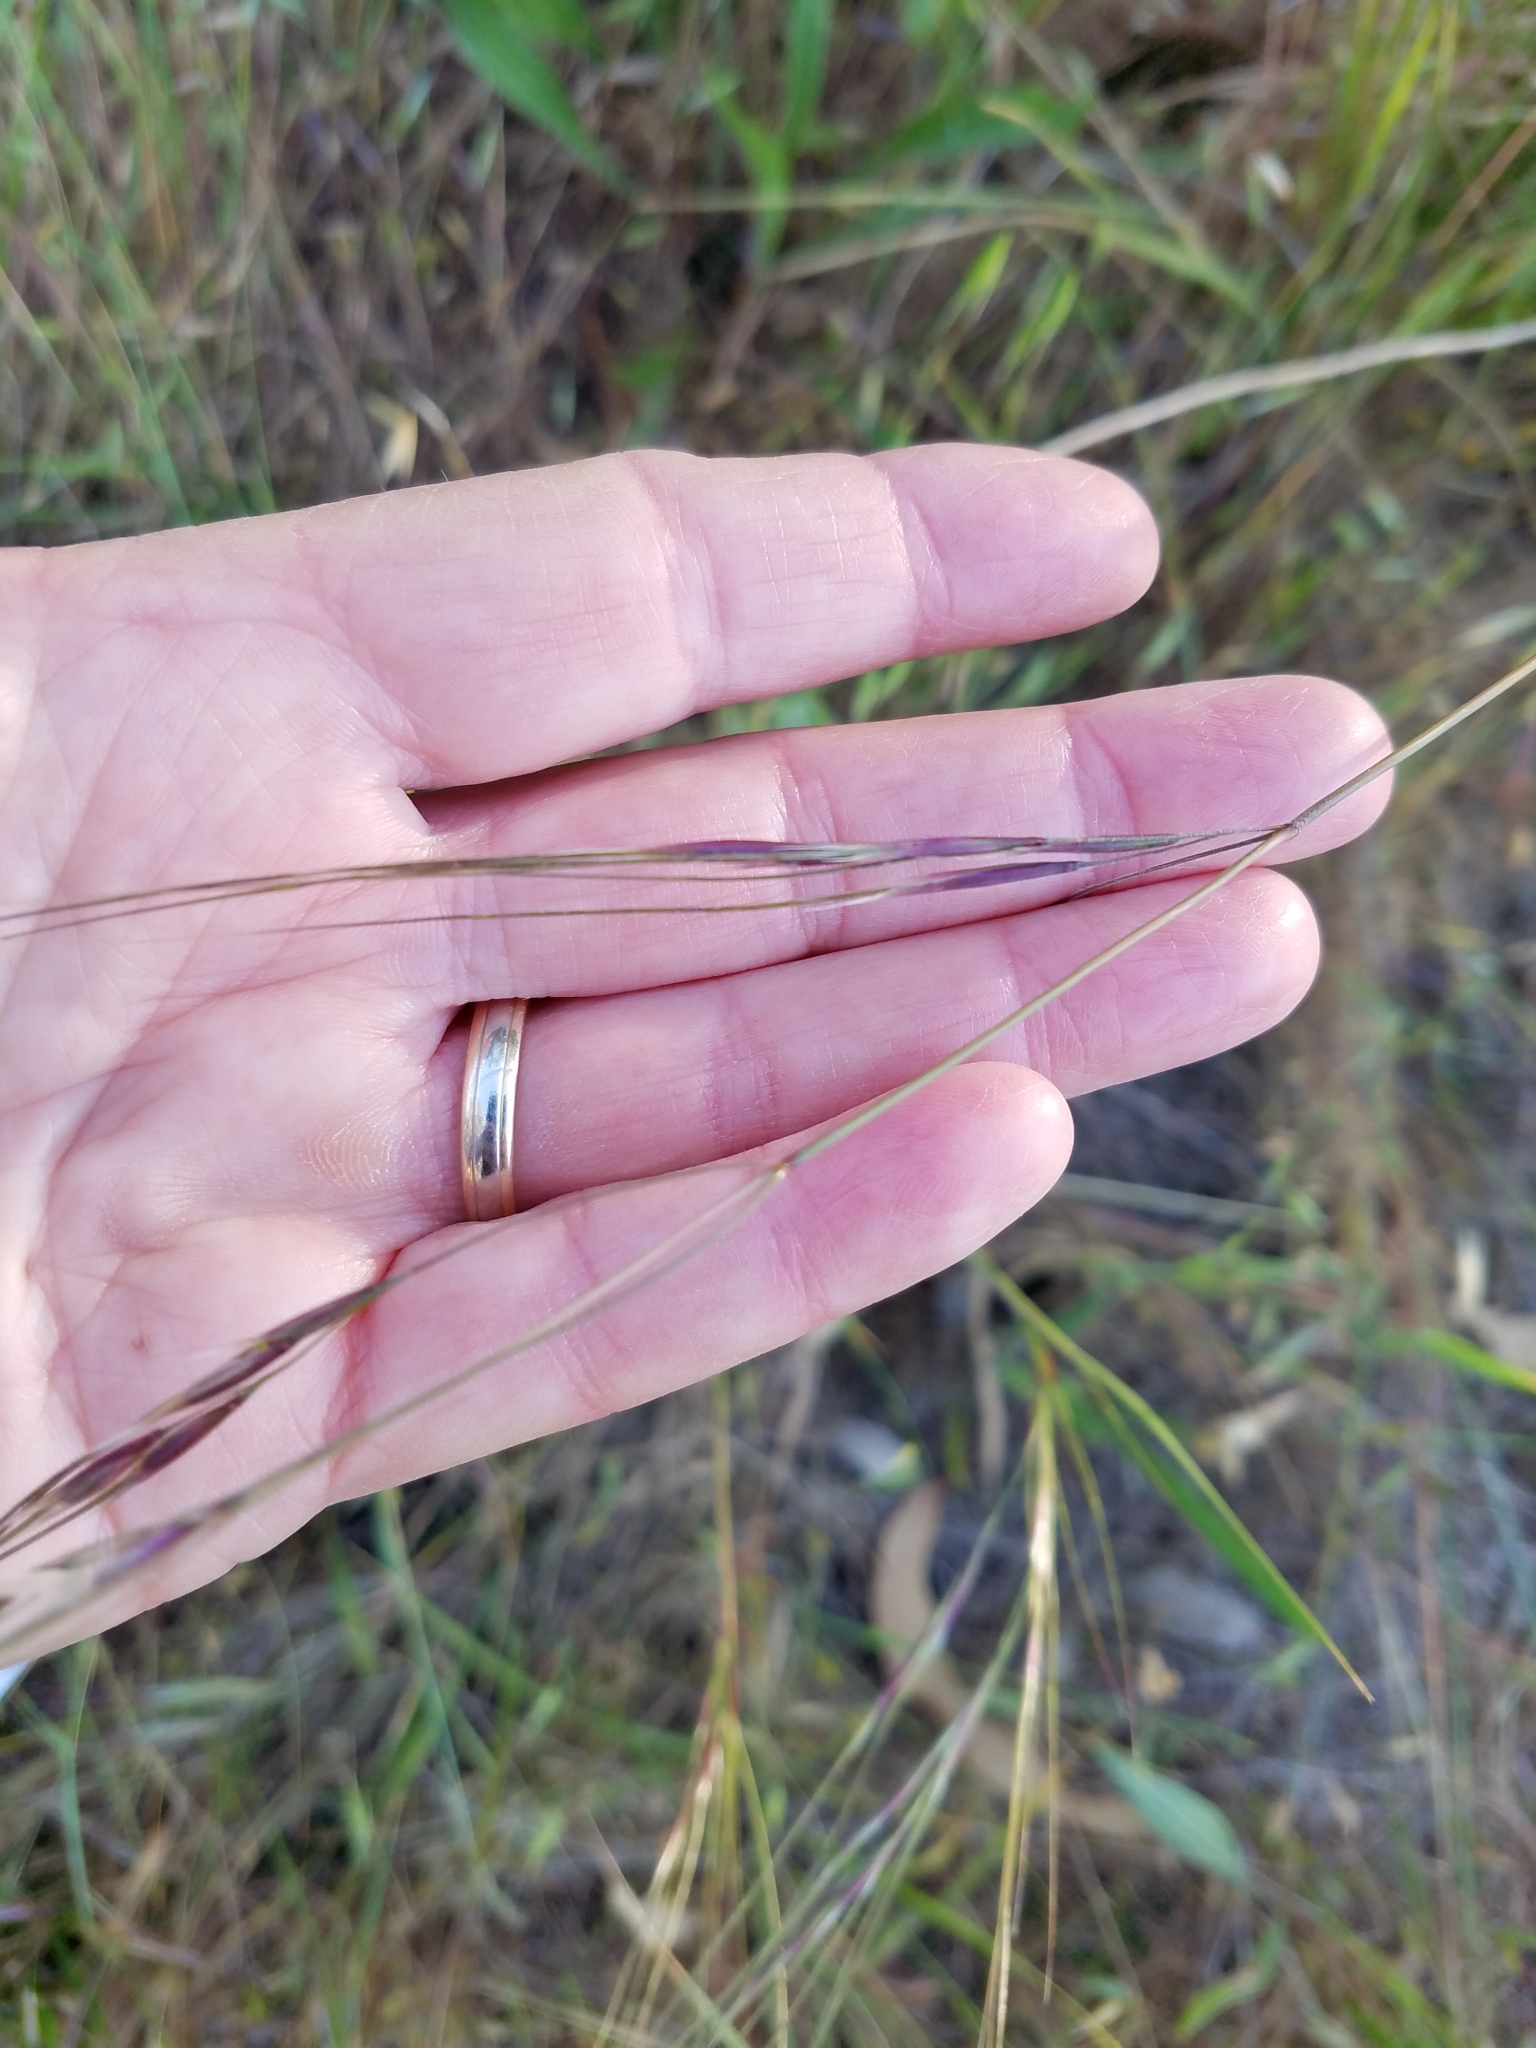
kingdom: Plantae
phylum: Tracheophyta
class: Liliopsida
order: Poales
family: Poaceae
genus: Nassella
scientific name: Nassella pulchra
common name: Purple needlegrass
